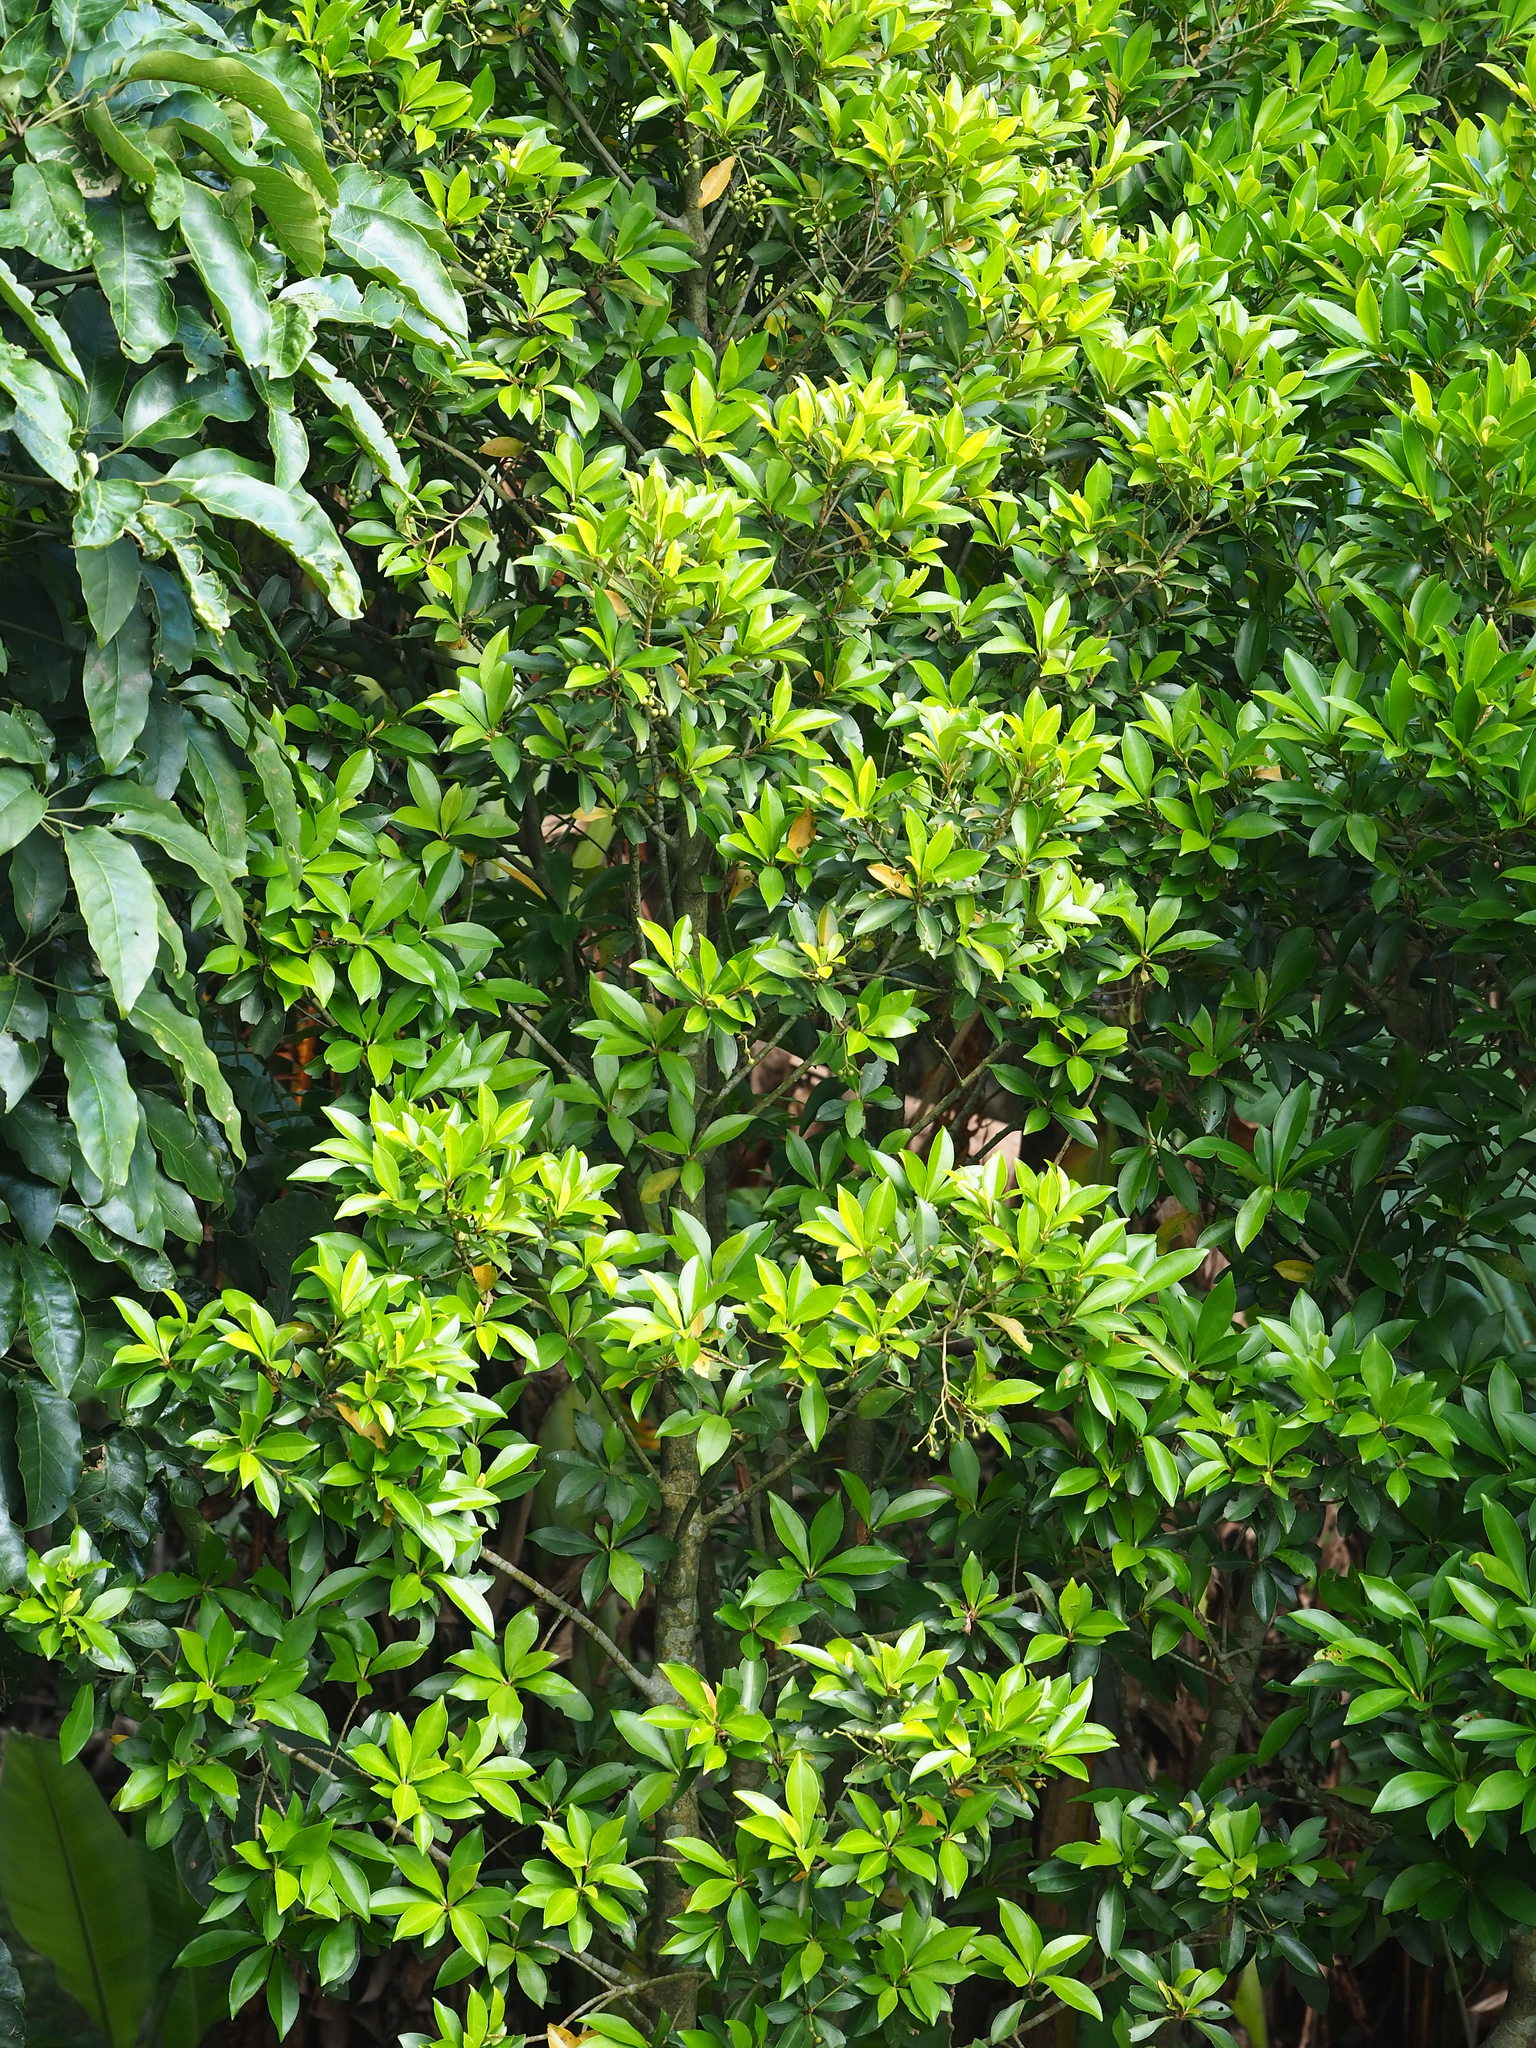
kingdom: Plantae
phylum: Tracheophyta
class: Magnoliopsida
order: Ericales
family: Primulaceae
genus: Ardisia
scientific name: Ardisia sieboldii
